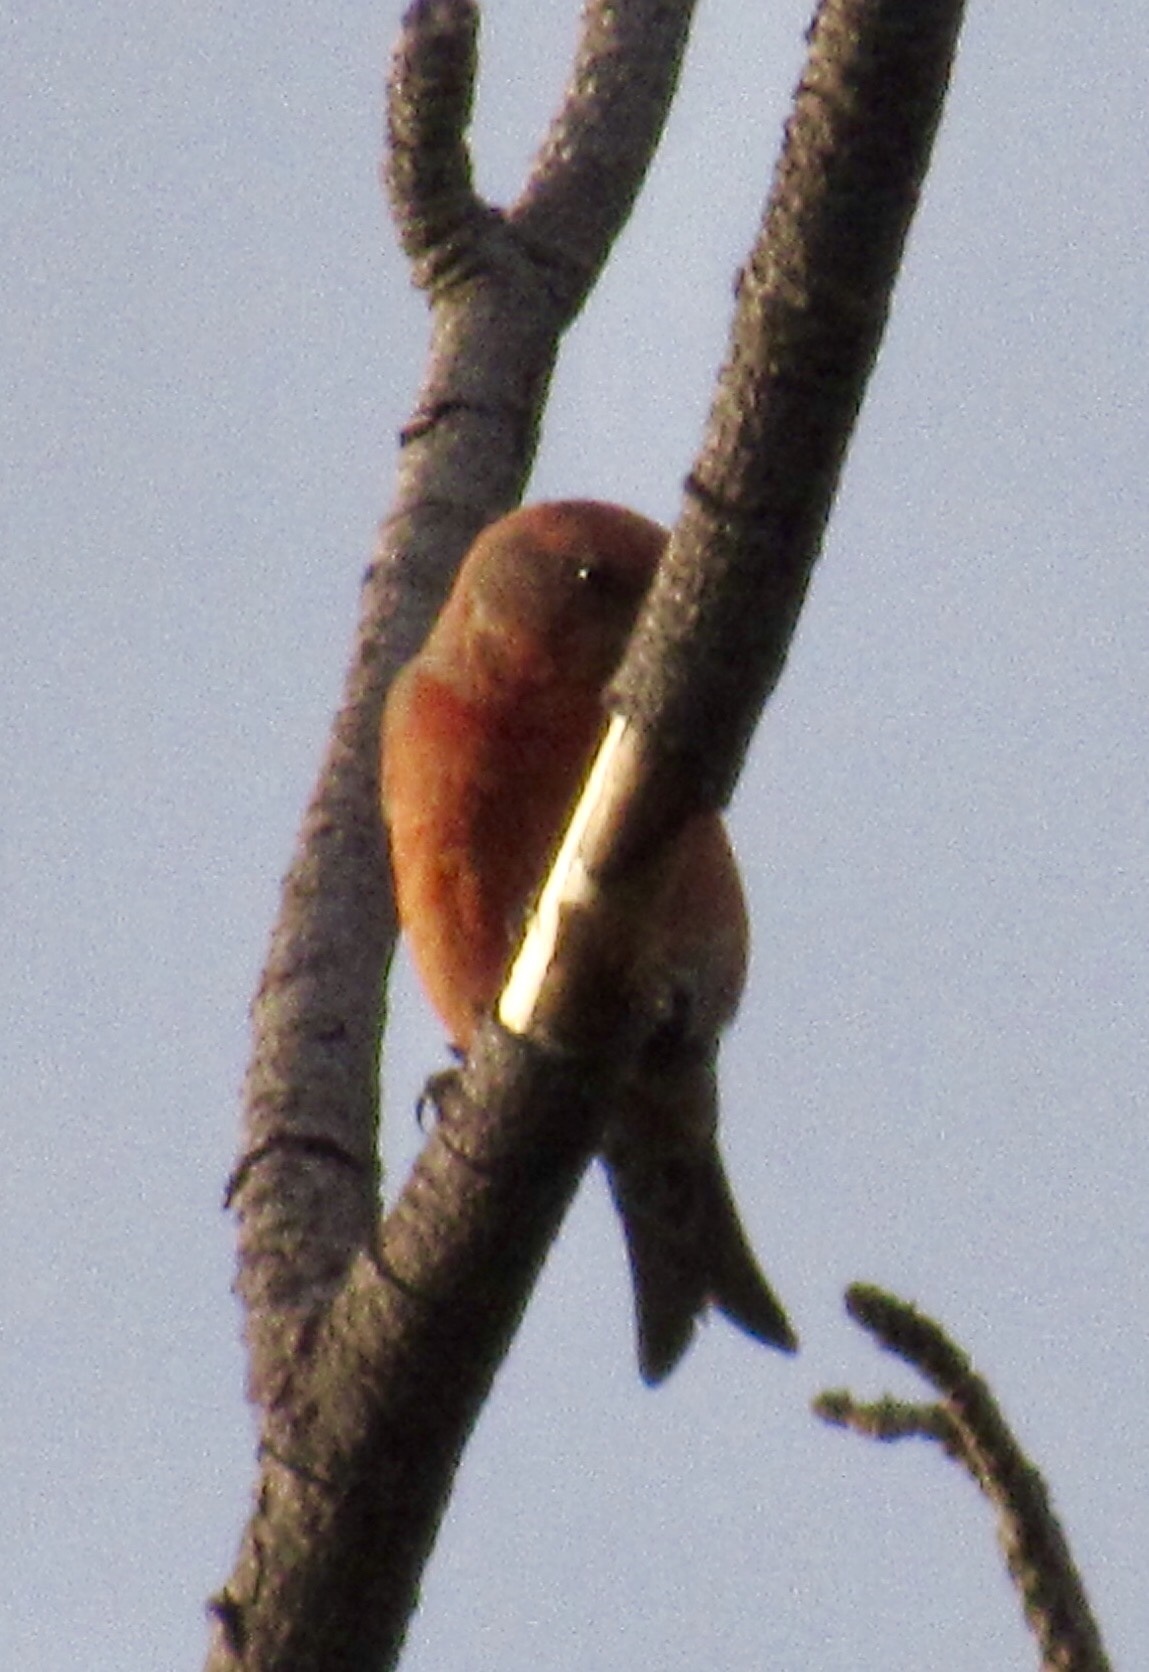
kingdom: Animalia
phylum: Chordata
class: Aves
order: Passeriformes
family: Fringillidae
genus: Loxia
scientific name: Loxia curvirostra
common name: Red crossbill
